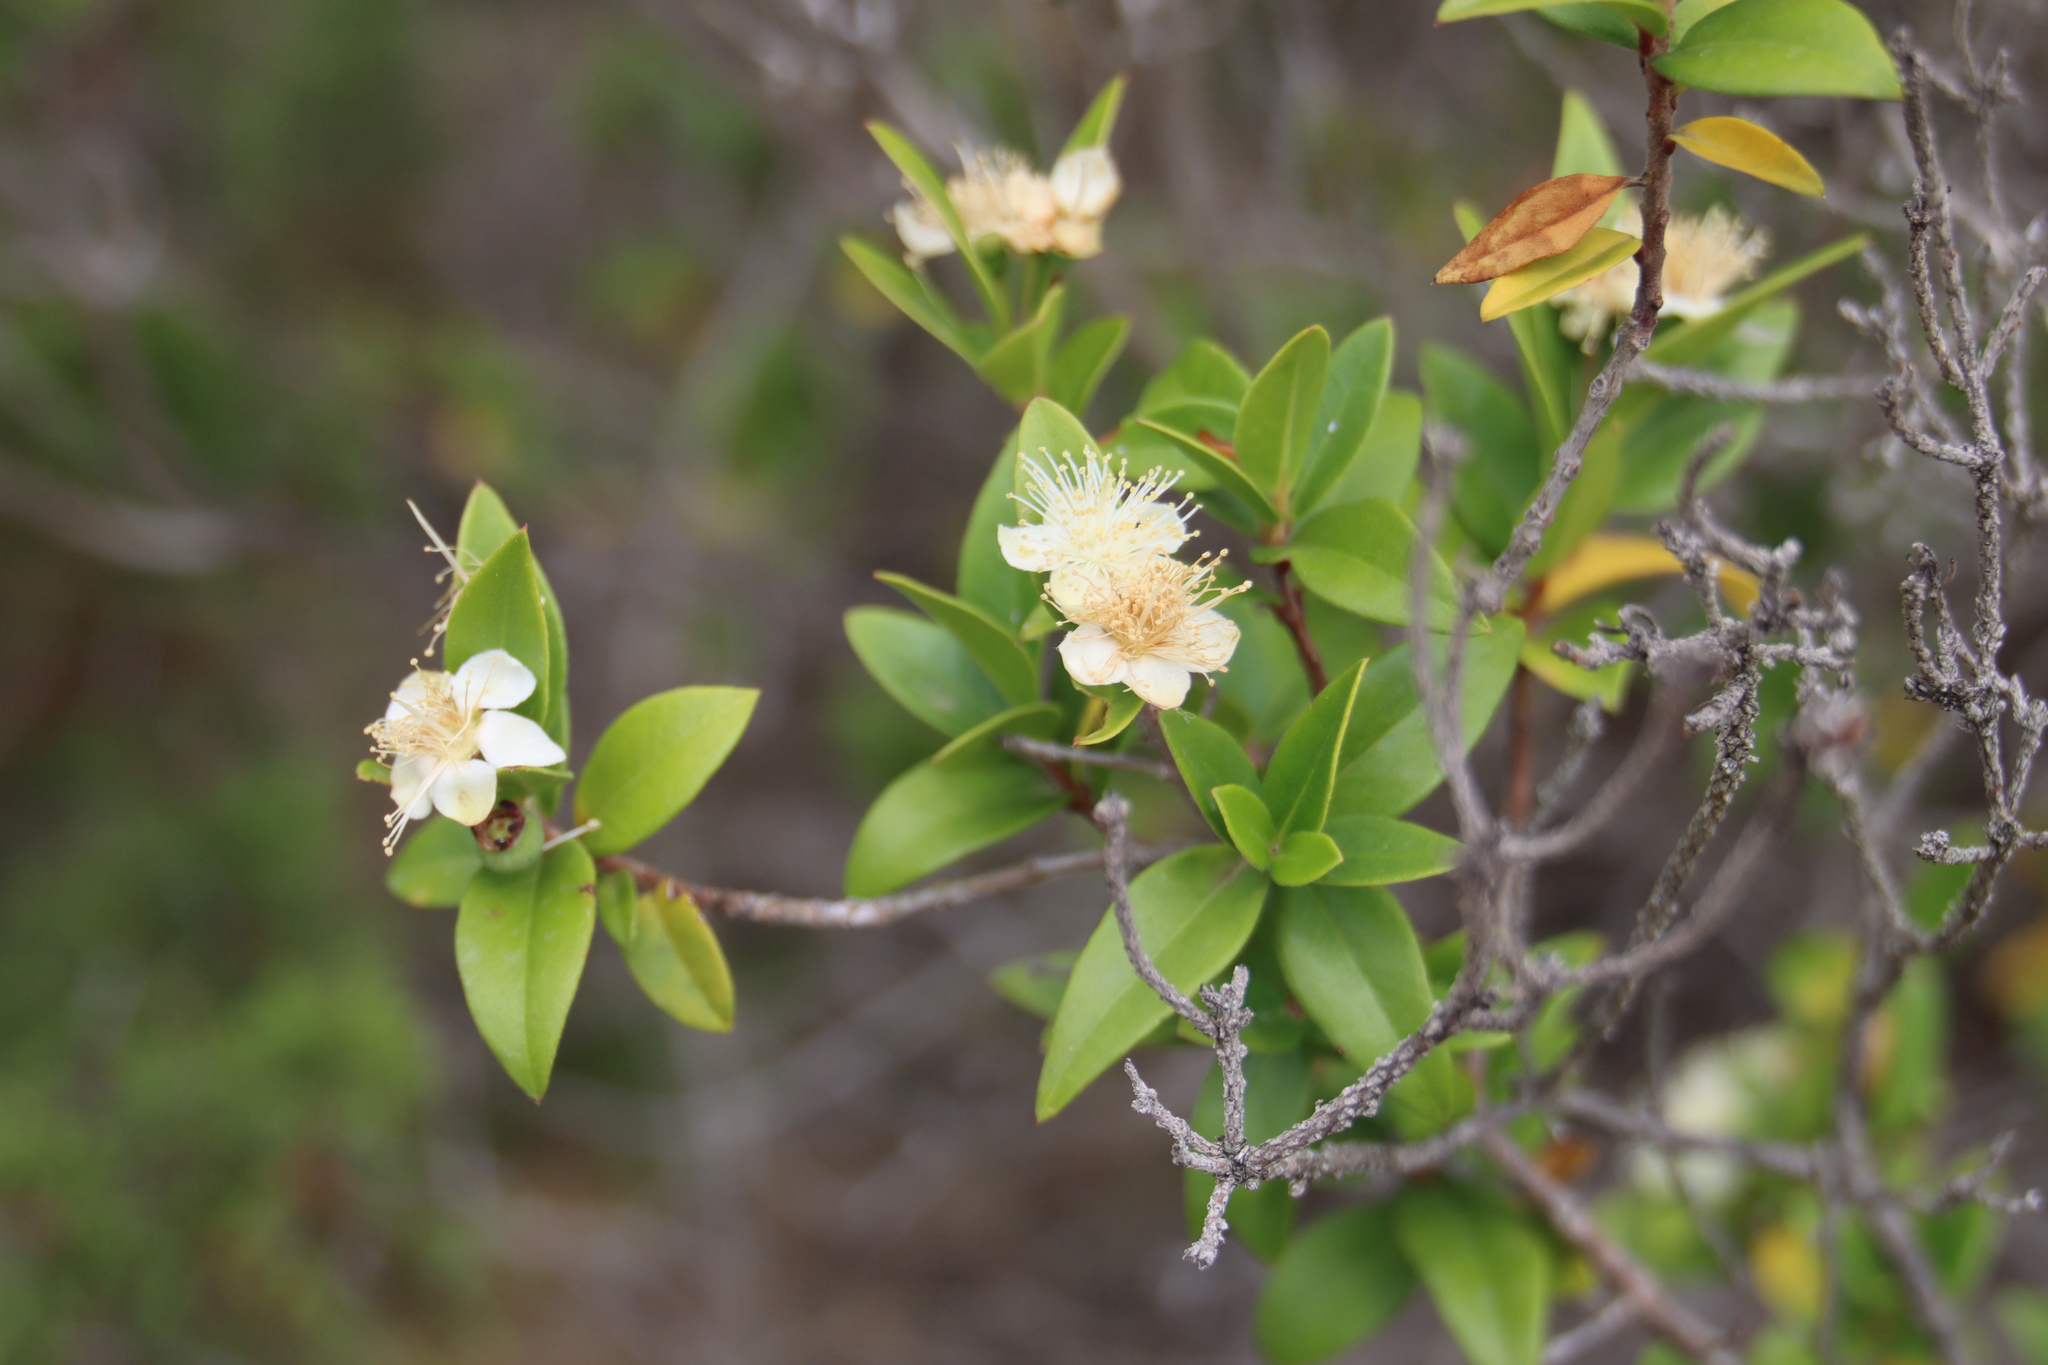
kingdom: Plantae
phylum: Tracheophyta
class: Magnoliopsida
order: Myrtales
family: Myrtaceae
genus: Myrtus
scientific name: Myrtus communis
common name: Myrtle
